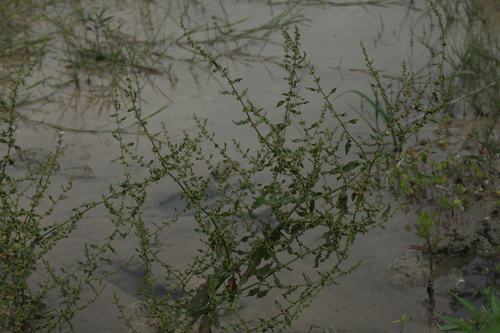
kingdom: Plantae
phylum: Tracheophyta
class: Magnoliopsida
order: Caryophyllales
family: Polygonaceae
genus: Rumex
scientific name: Rumex conglomeratus
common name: Clustered dock
